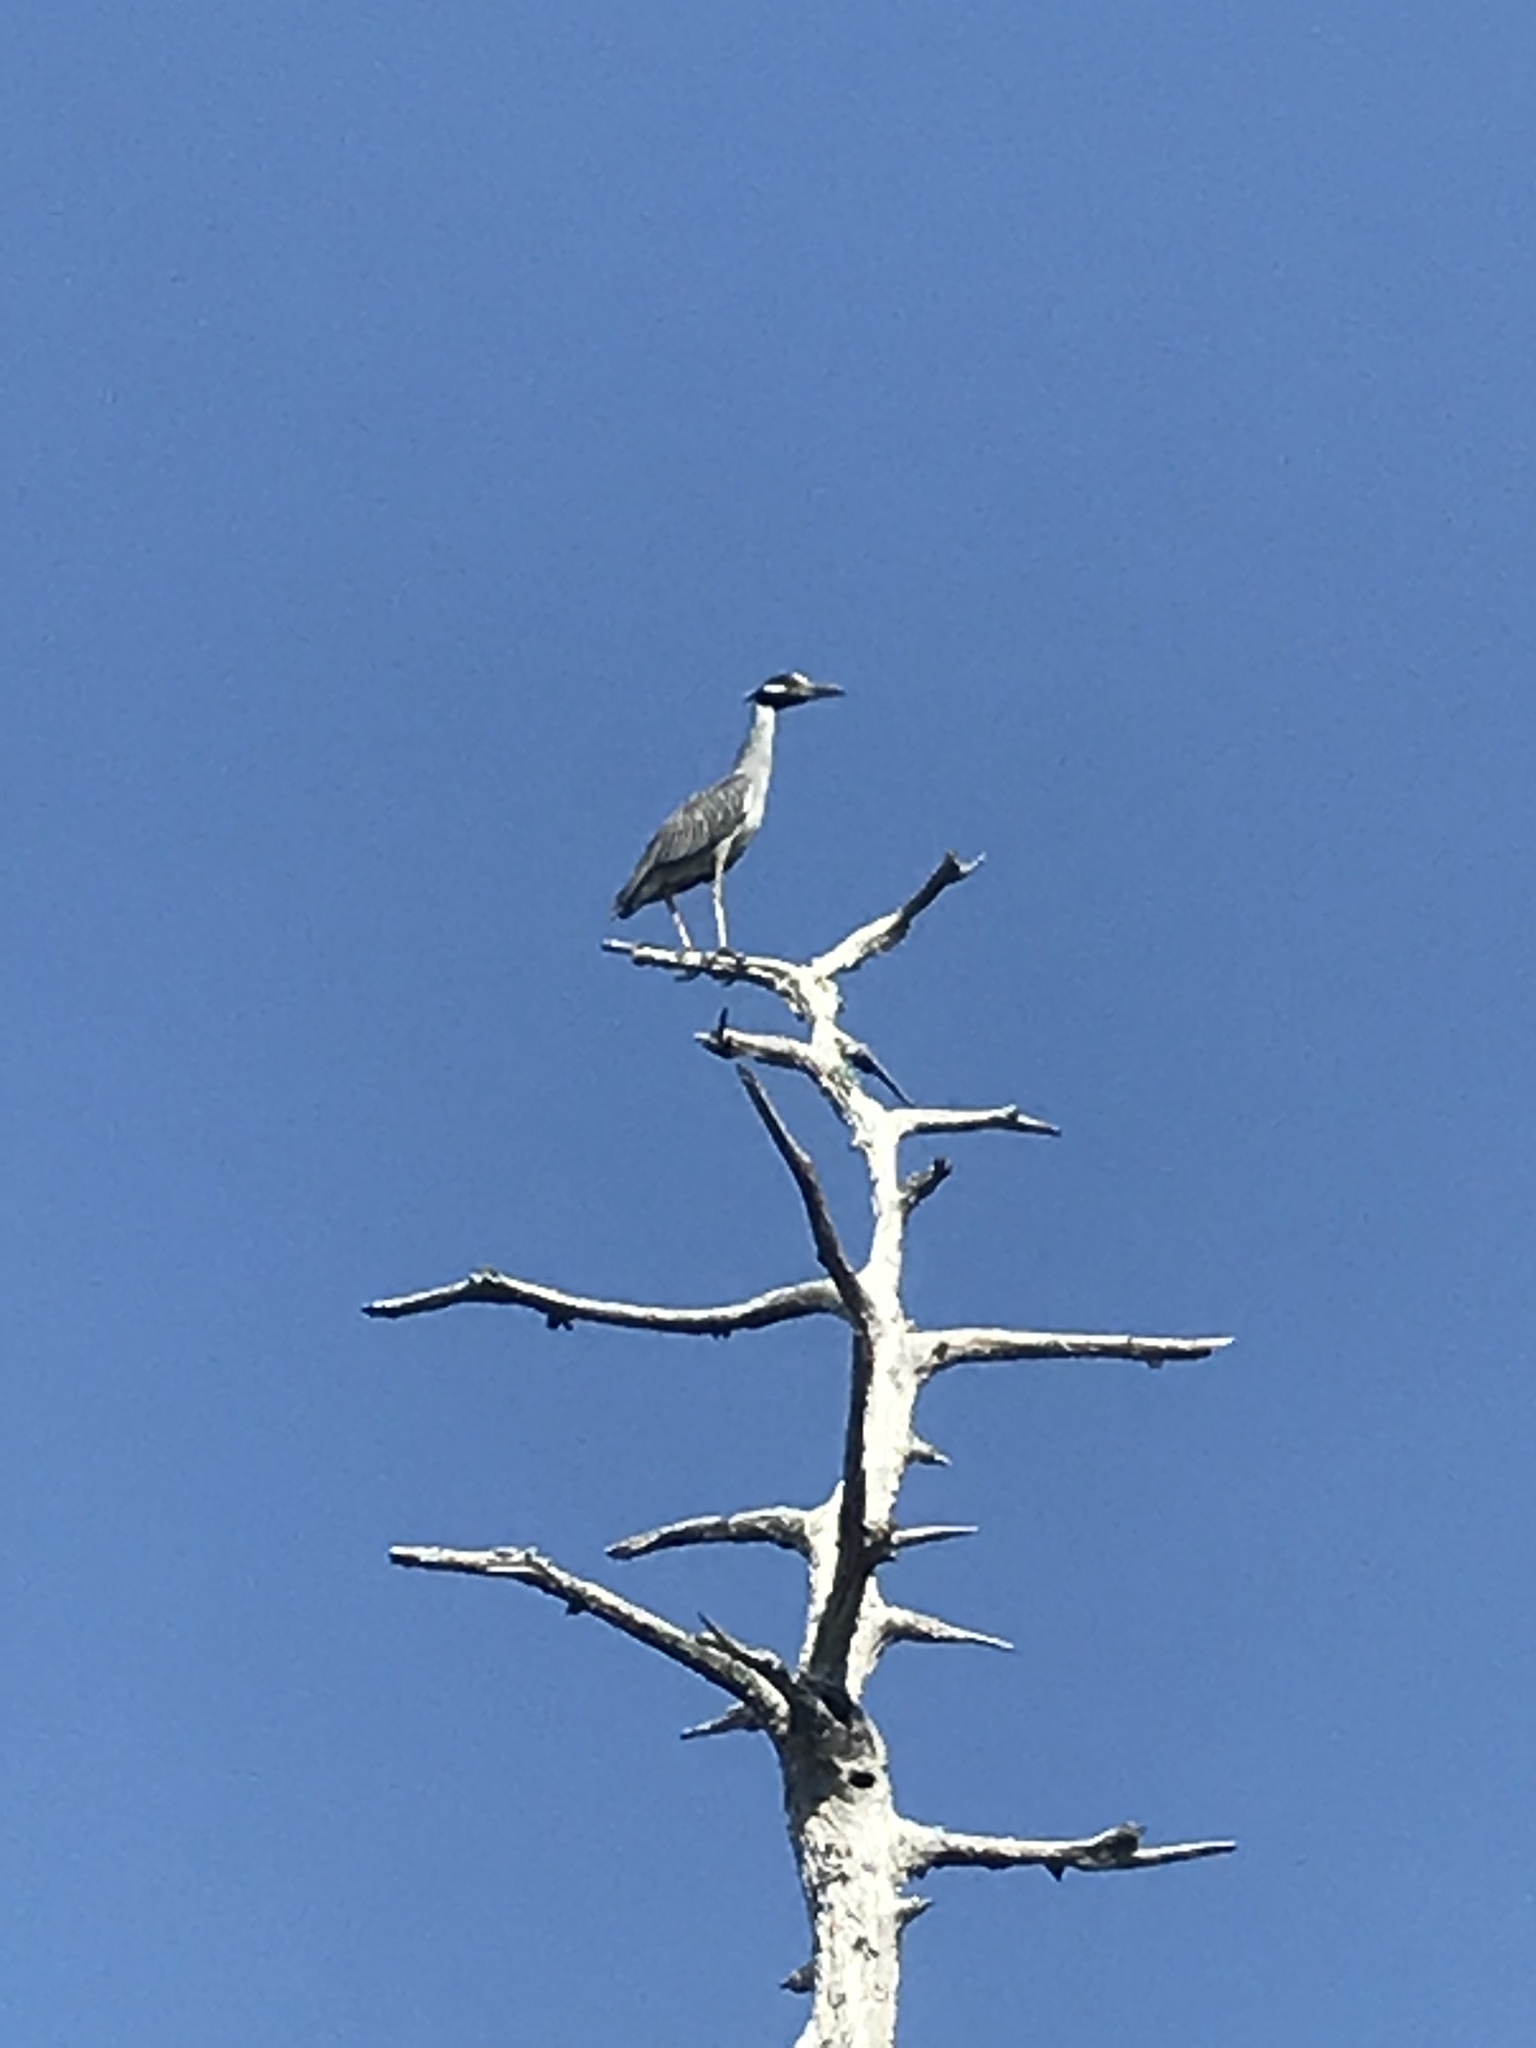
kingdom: Animalia
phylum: Chordata
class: Aves
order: Pelecaniformes
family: Ardeidae
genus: Nyctanassa
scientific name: Nyctanassa violacea
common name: Yellow-crowned night heron
